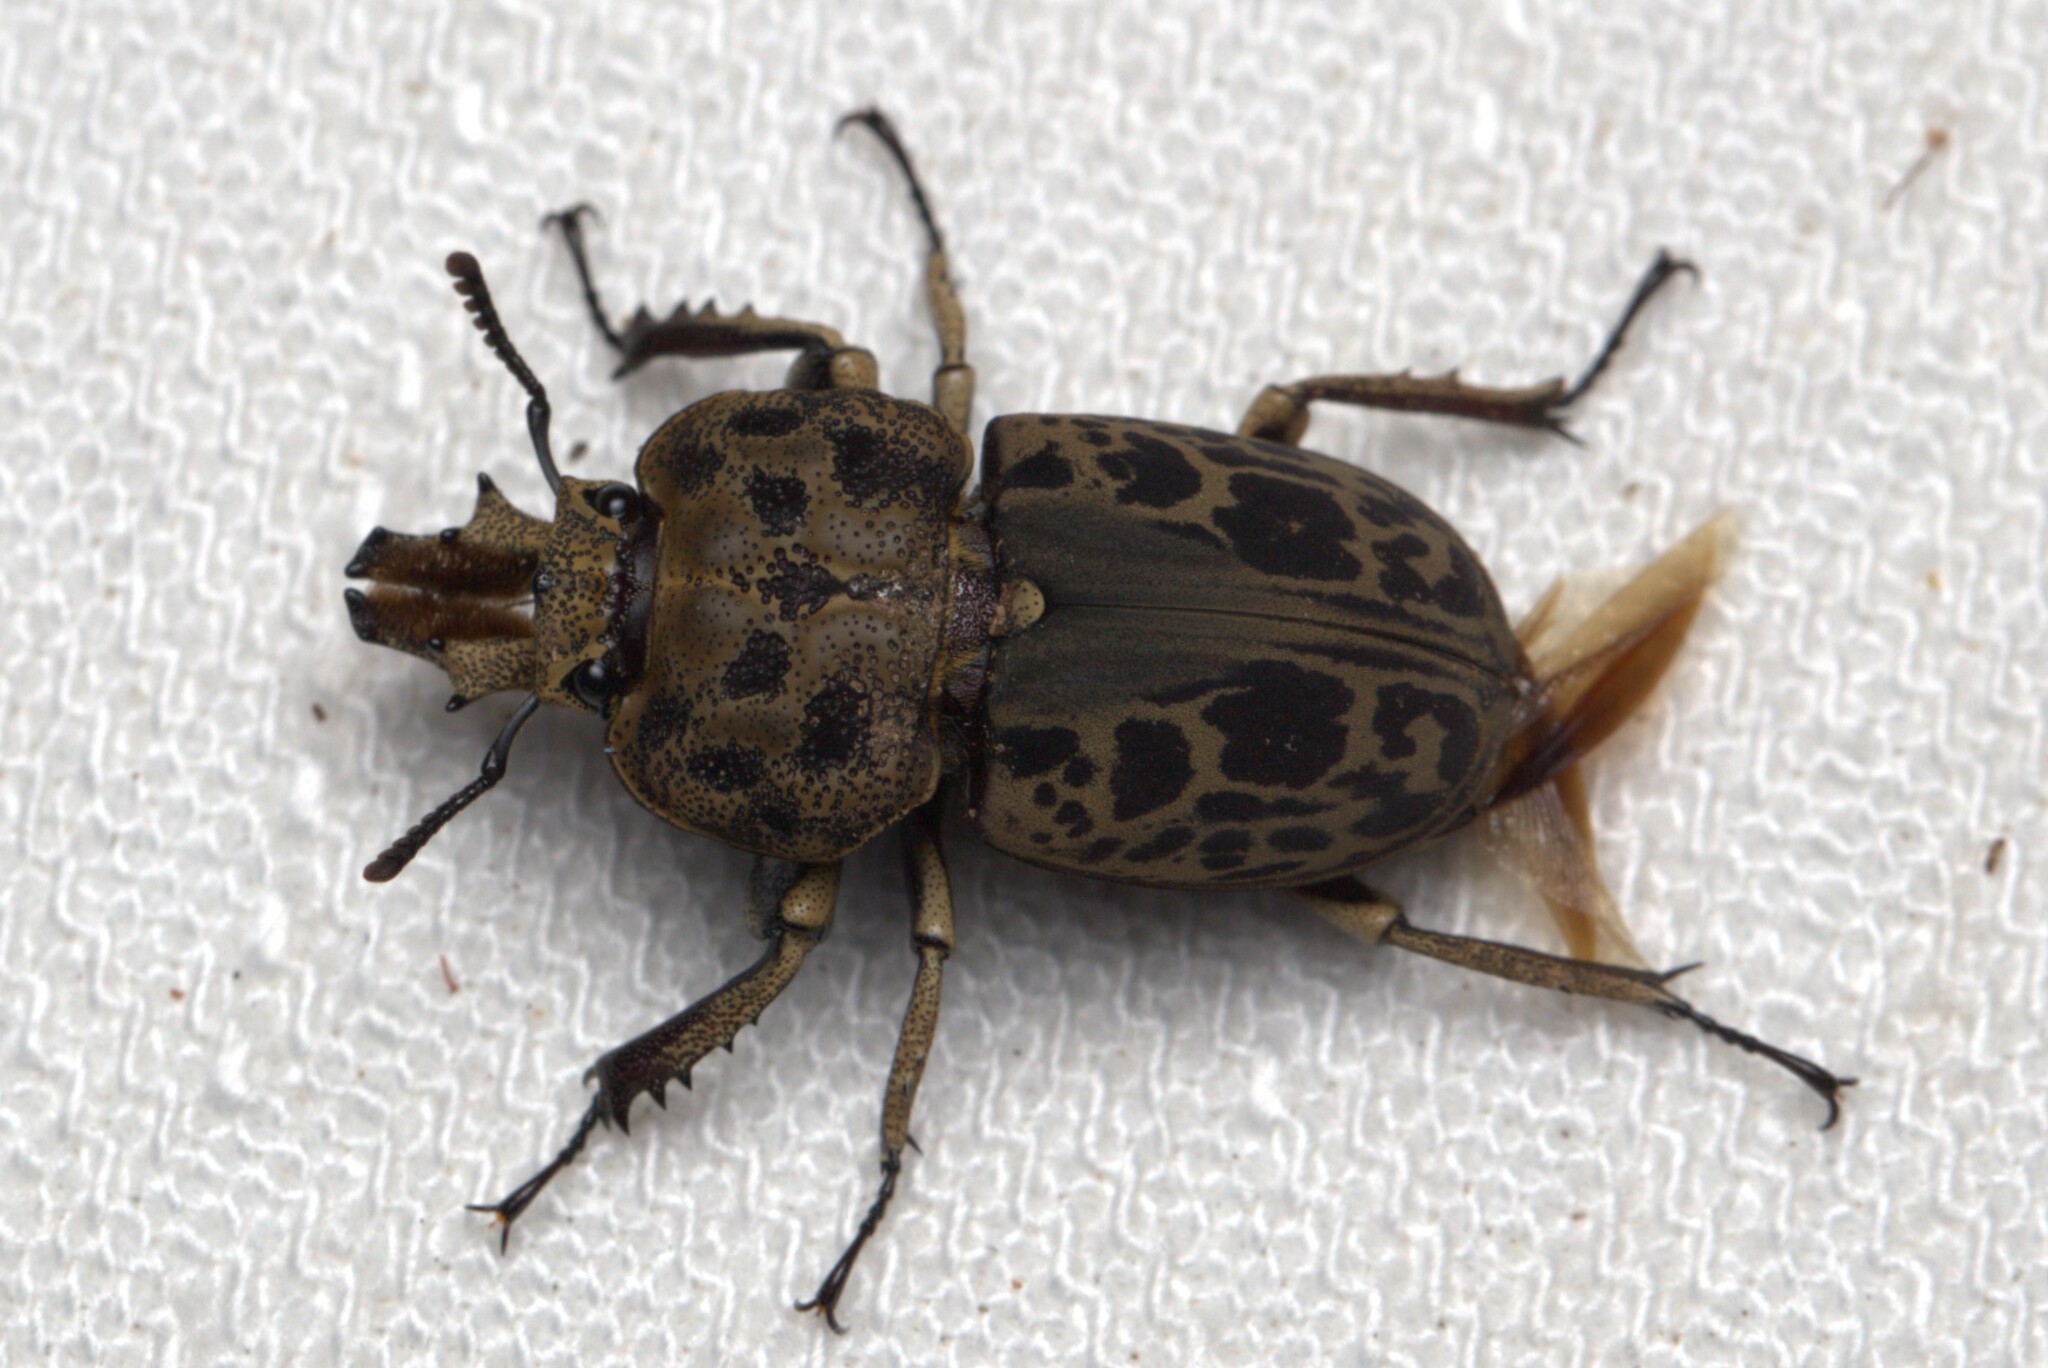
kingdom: Animalia
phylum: Arthropoda
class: Insecta
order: Coleoptera
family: Lucanidae
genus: Ryssonotus
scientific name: Ryssonotus nebulosus
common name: Brown stag beetle
